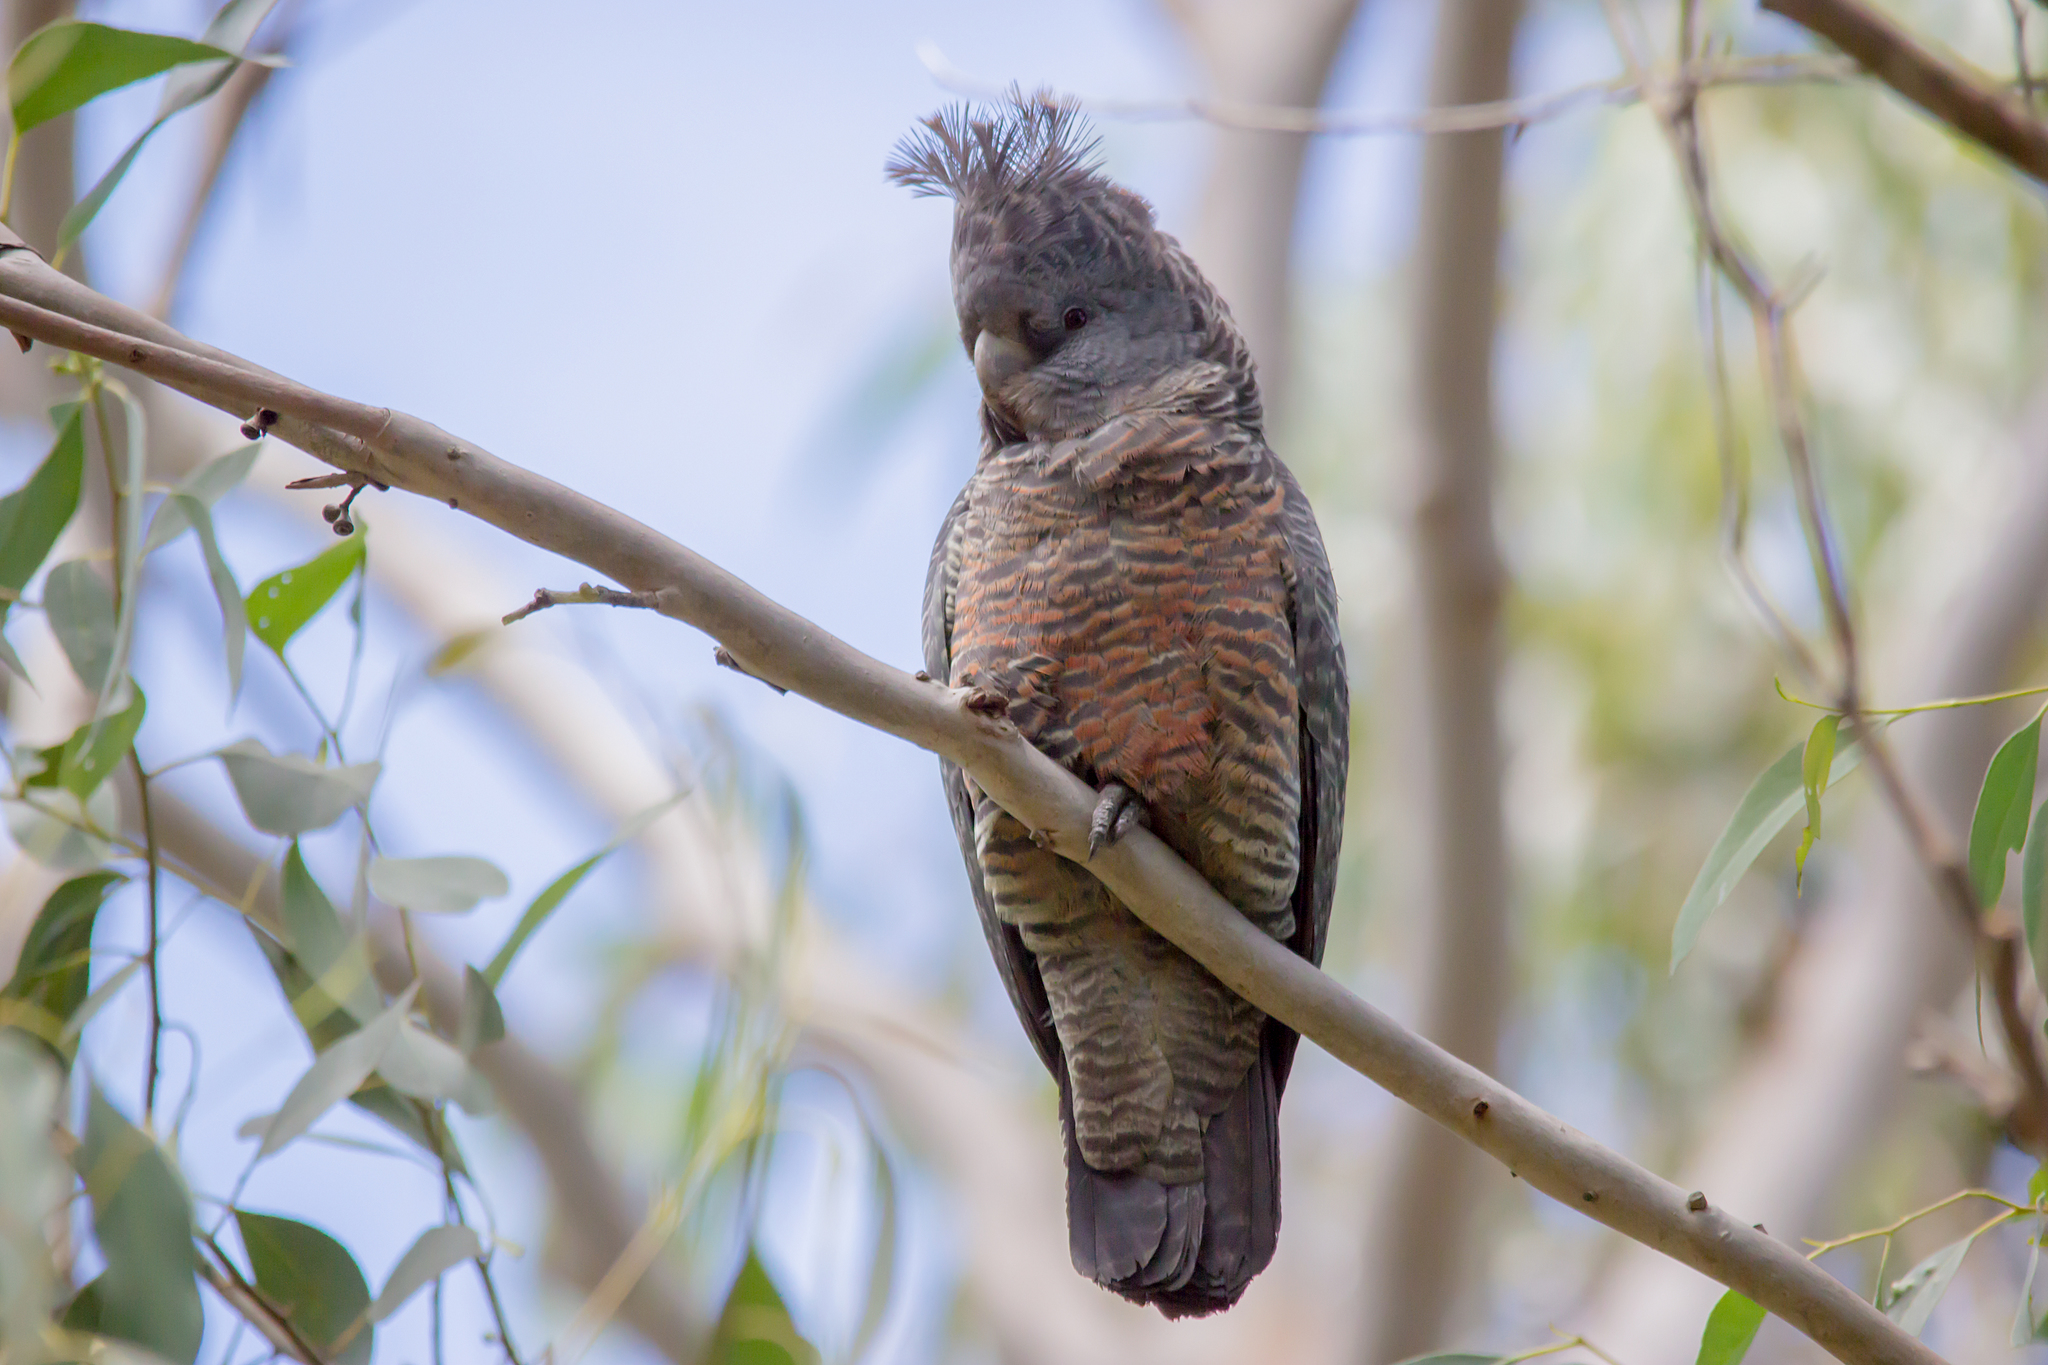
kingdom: Animalia
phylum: Chordata
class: Aves
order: Psittaciformes
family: Psittacidae
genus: Callocephalon
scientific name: Callocephalon fimbriatum
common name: Gang-gang cockatoo
